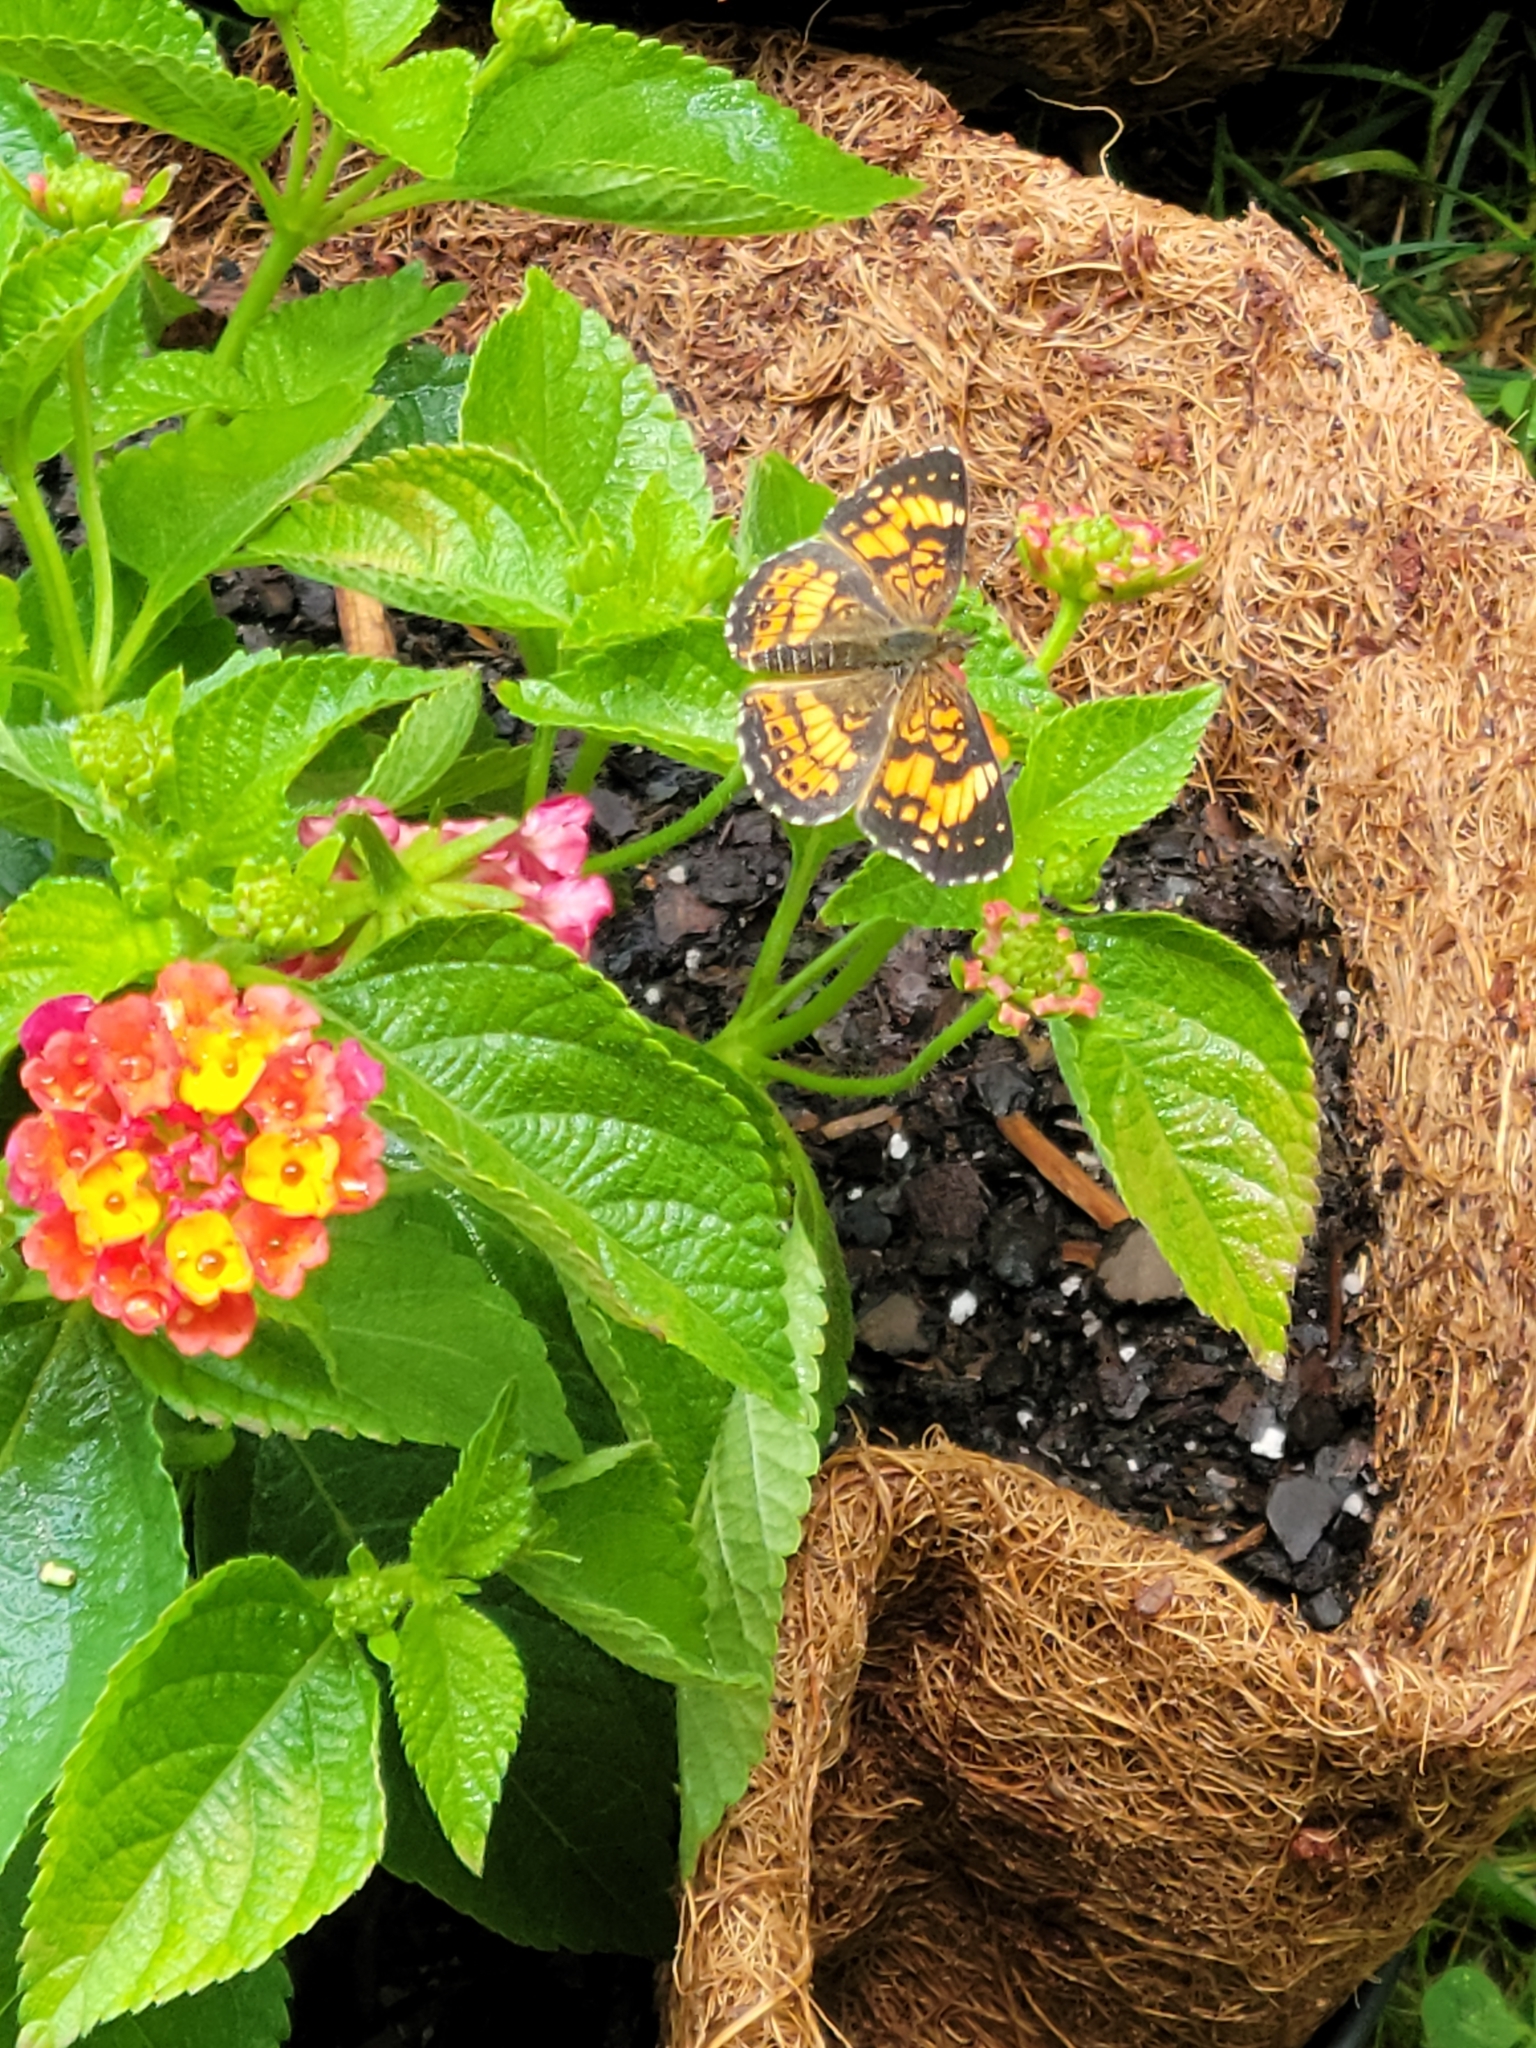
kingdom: Animalia
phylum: Arthropoda
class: Insecta
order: Lepidoptera
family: Nymphalidae
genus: Chlosyne
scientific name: Chlosyne nycteis
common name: Silvery checkerspot
